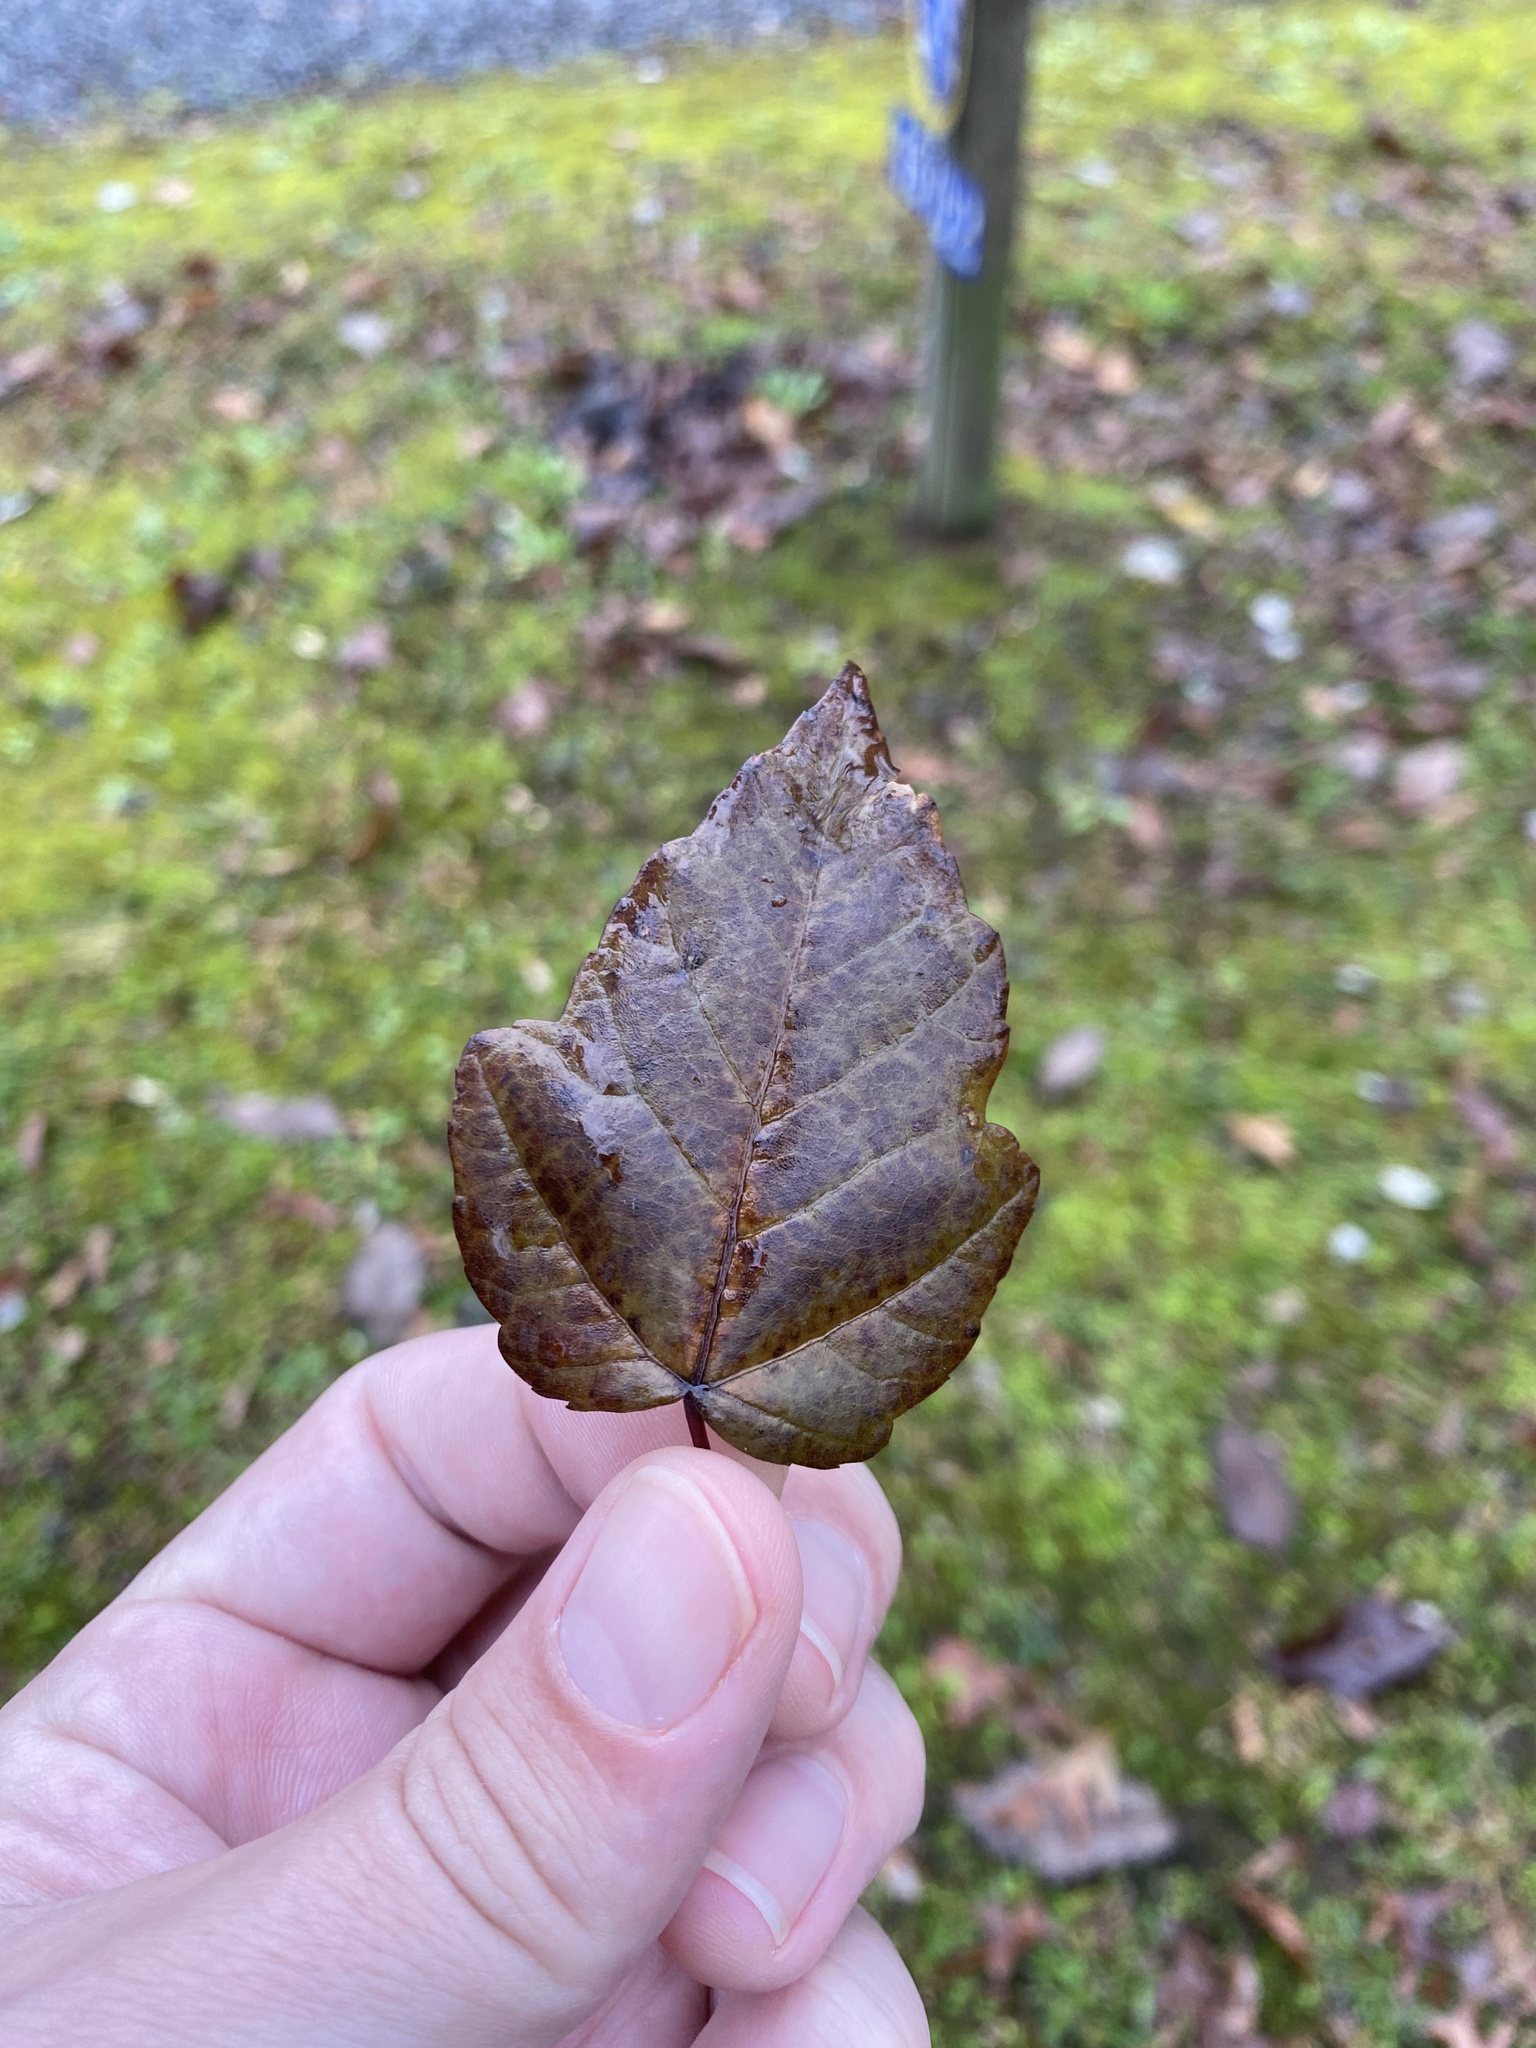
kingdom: Plantae
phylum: Tracheophyta
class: Magnoliopsida
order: Sapindales
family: Sapindaceae
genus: Acer
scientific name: Acer rubrum
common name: Red maple
